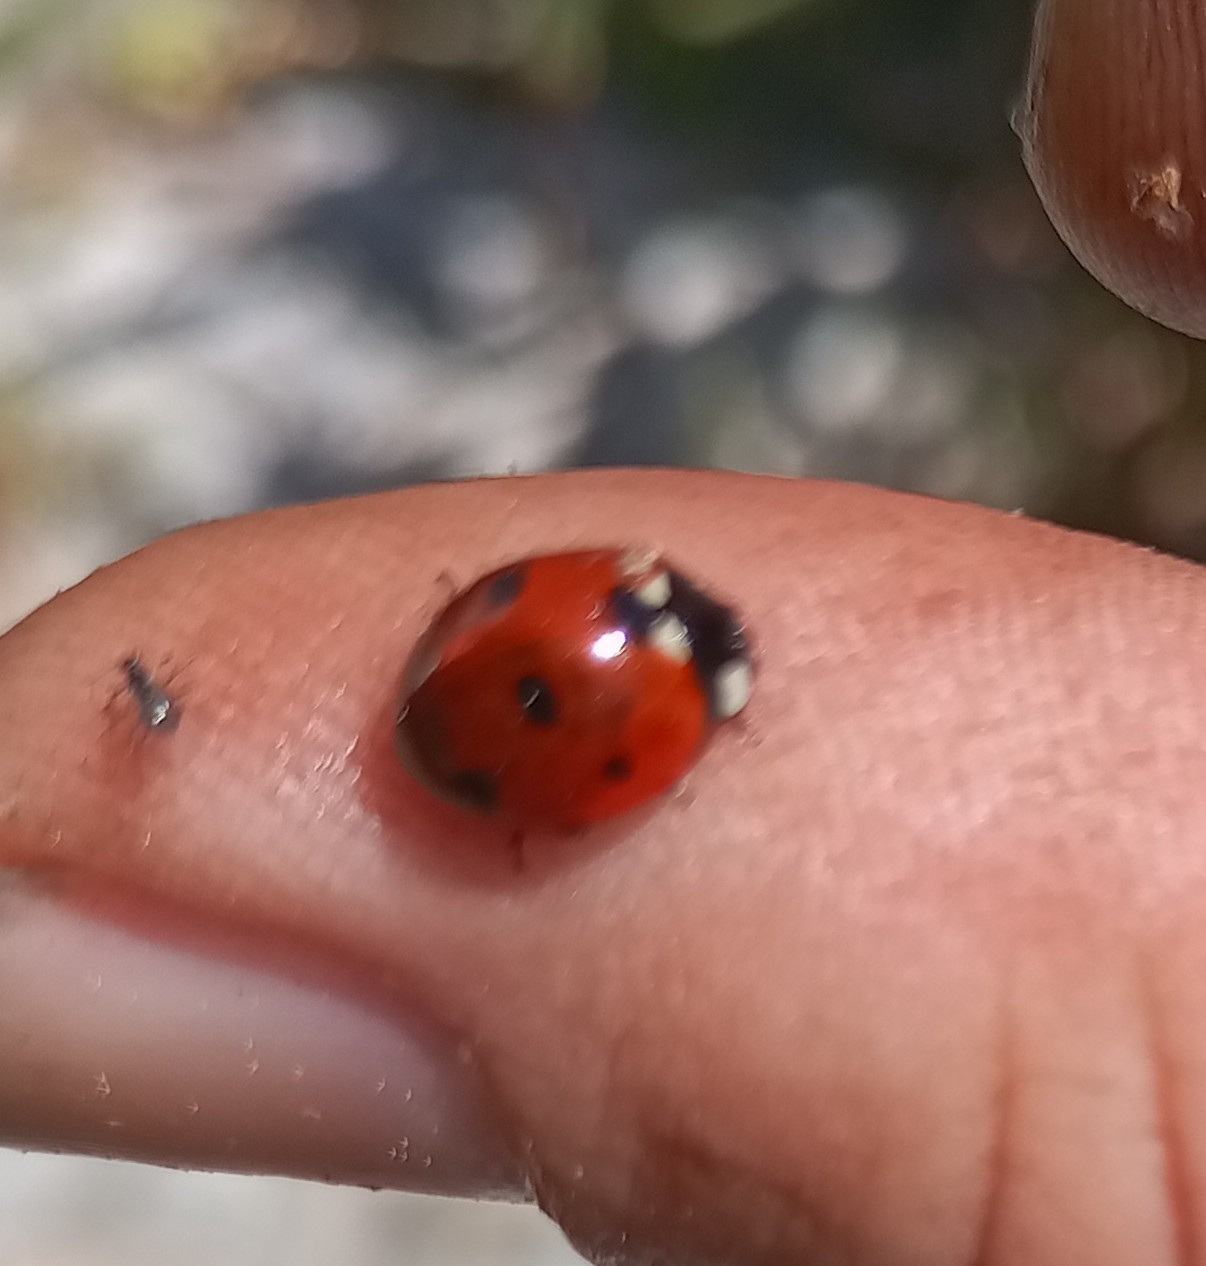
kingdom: Animalia
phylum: Arthropoda
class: Insecta
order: Coleoptera
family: Coccinellidae
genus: Coccinella
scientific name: Coccinella septempunctata
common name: Sevenspotted lady beetle
